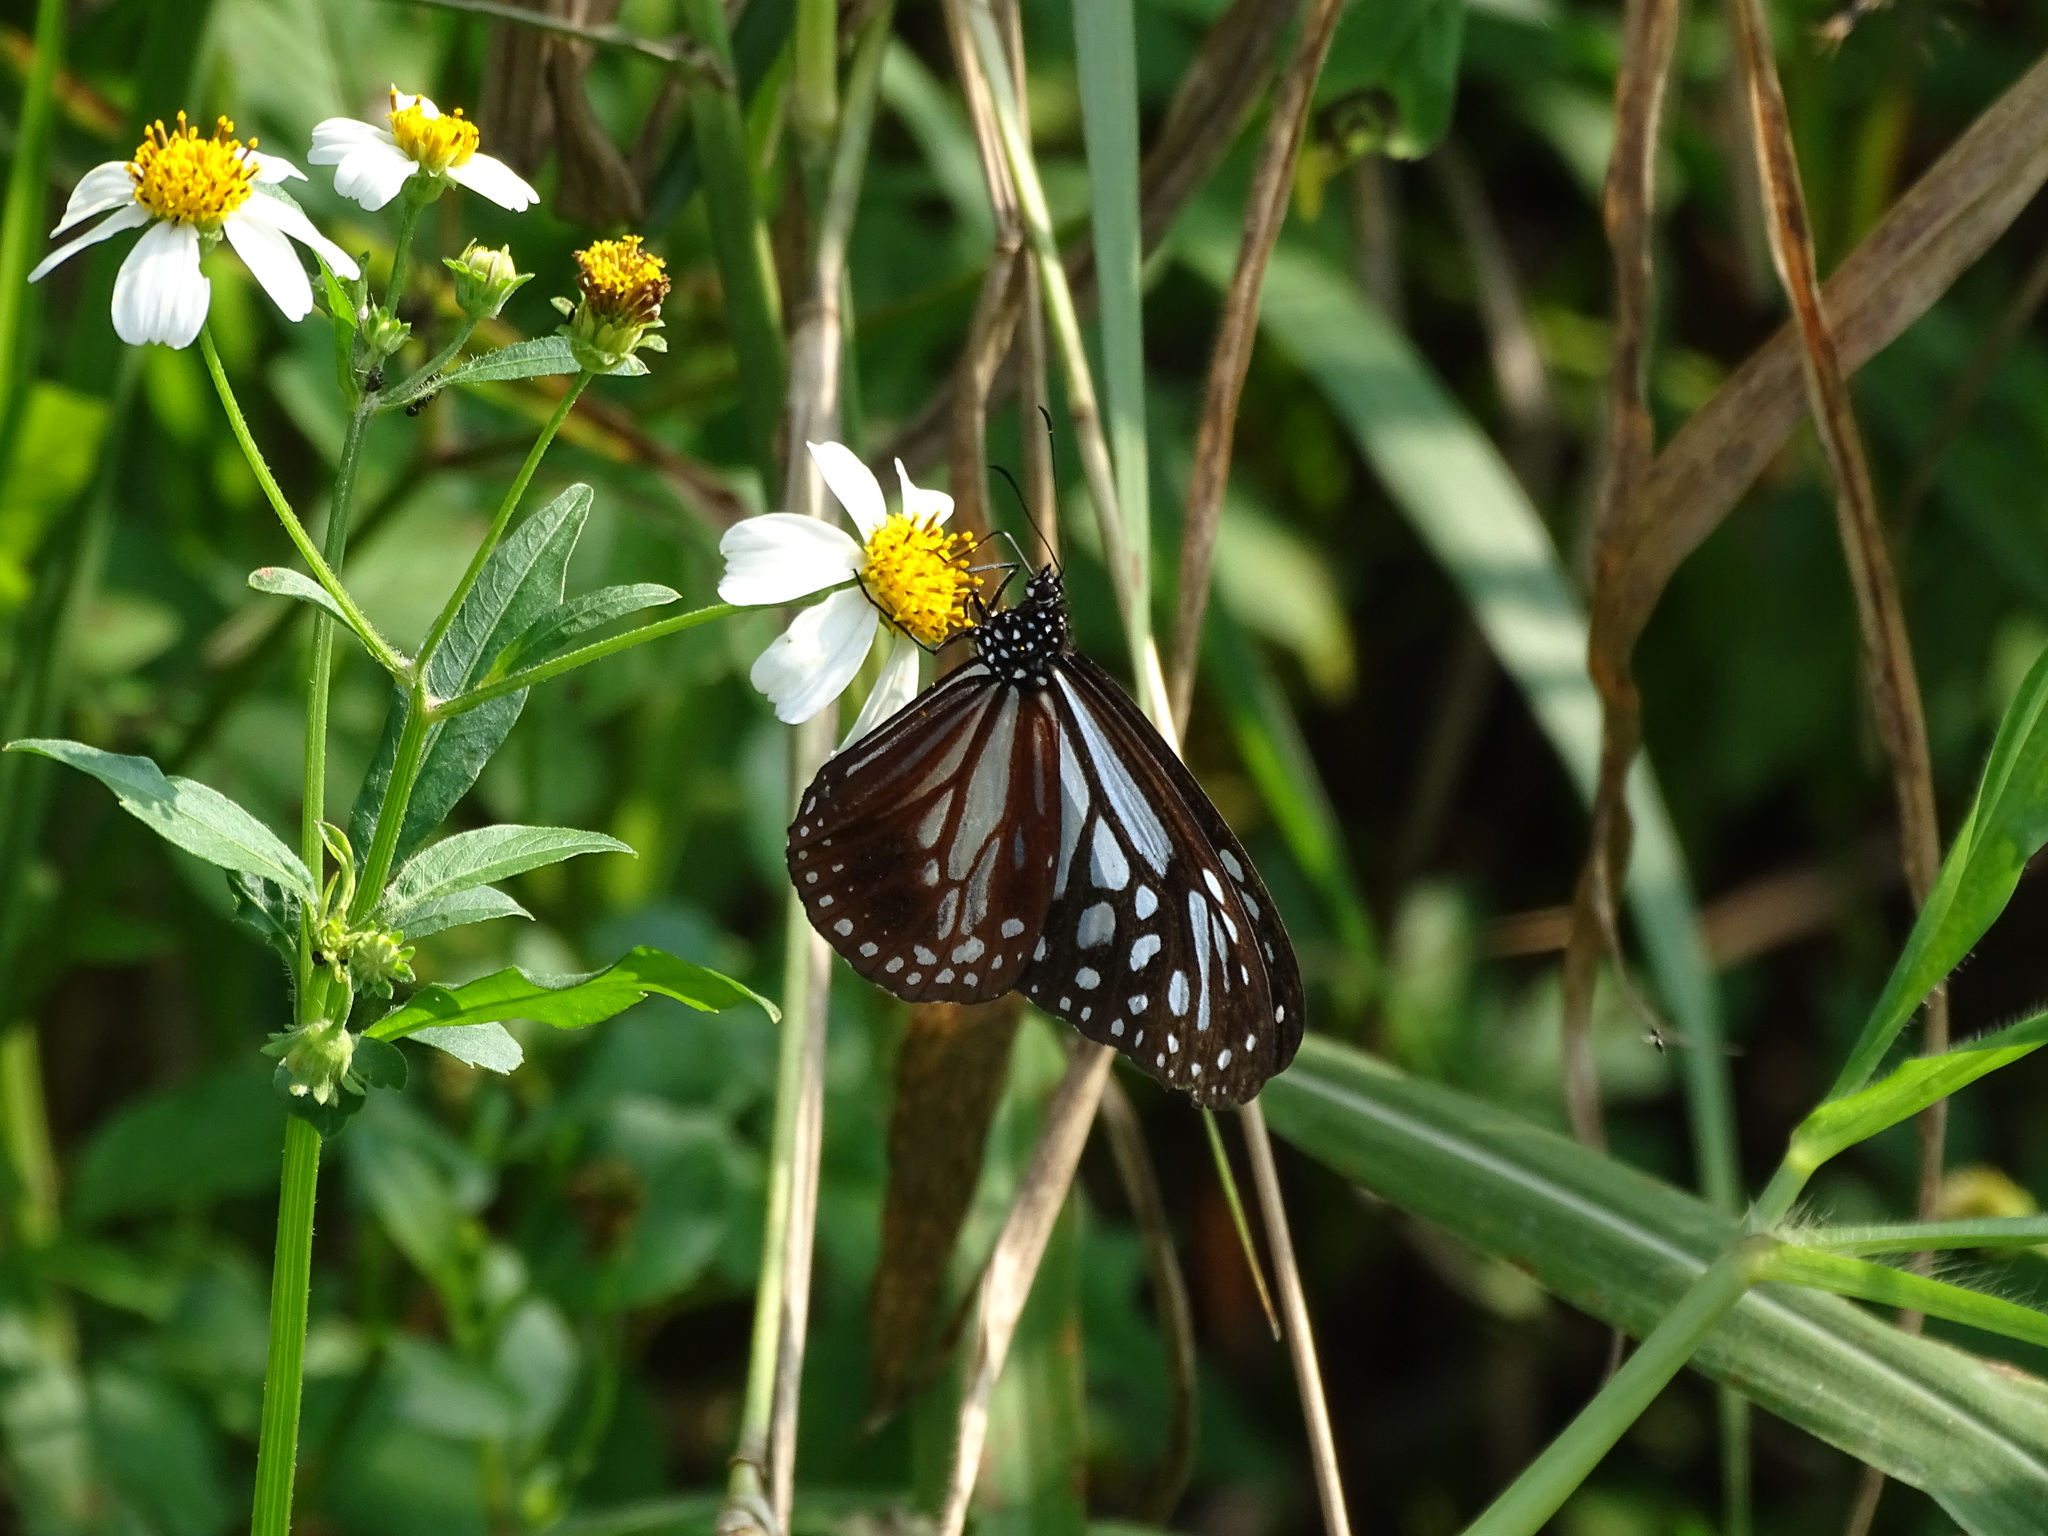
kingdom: Animalia
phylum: Arthropoda
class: Insecta
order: Lepidoptera
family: Nymphalidae
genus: Parantica
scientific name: Parantica melaneus
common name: Chocolate tiger
